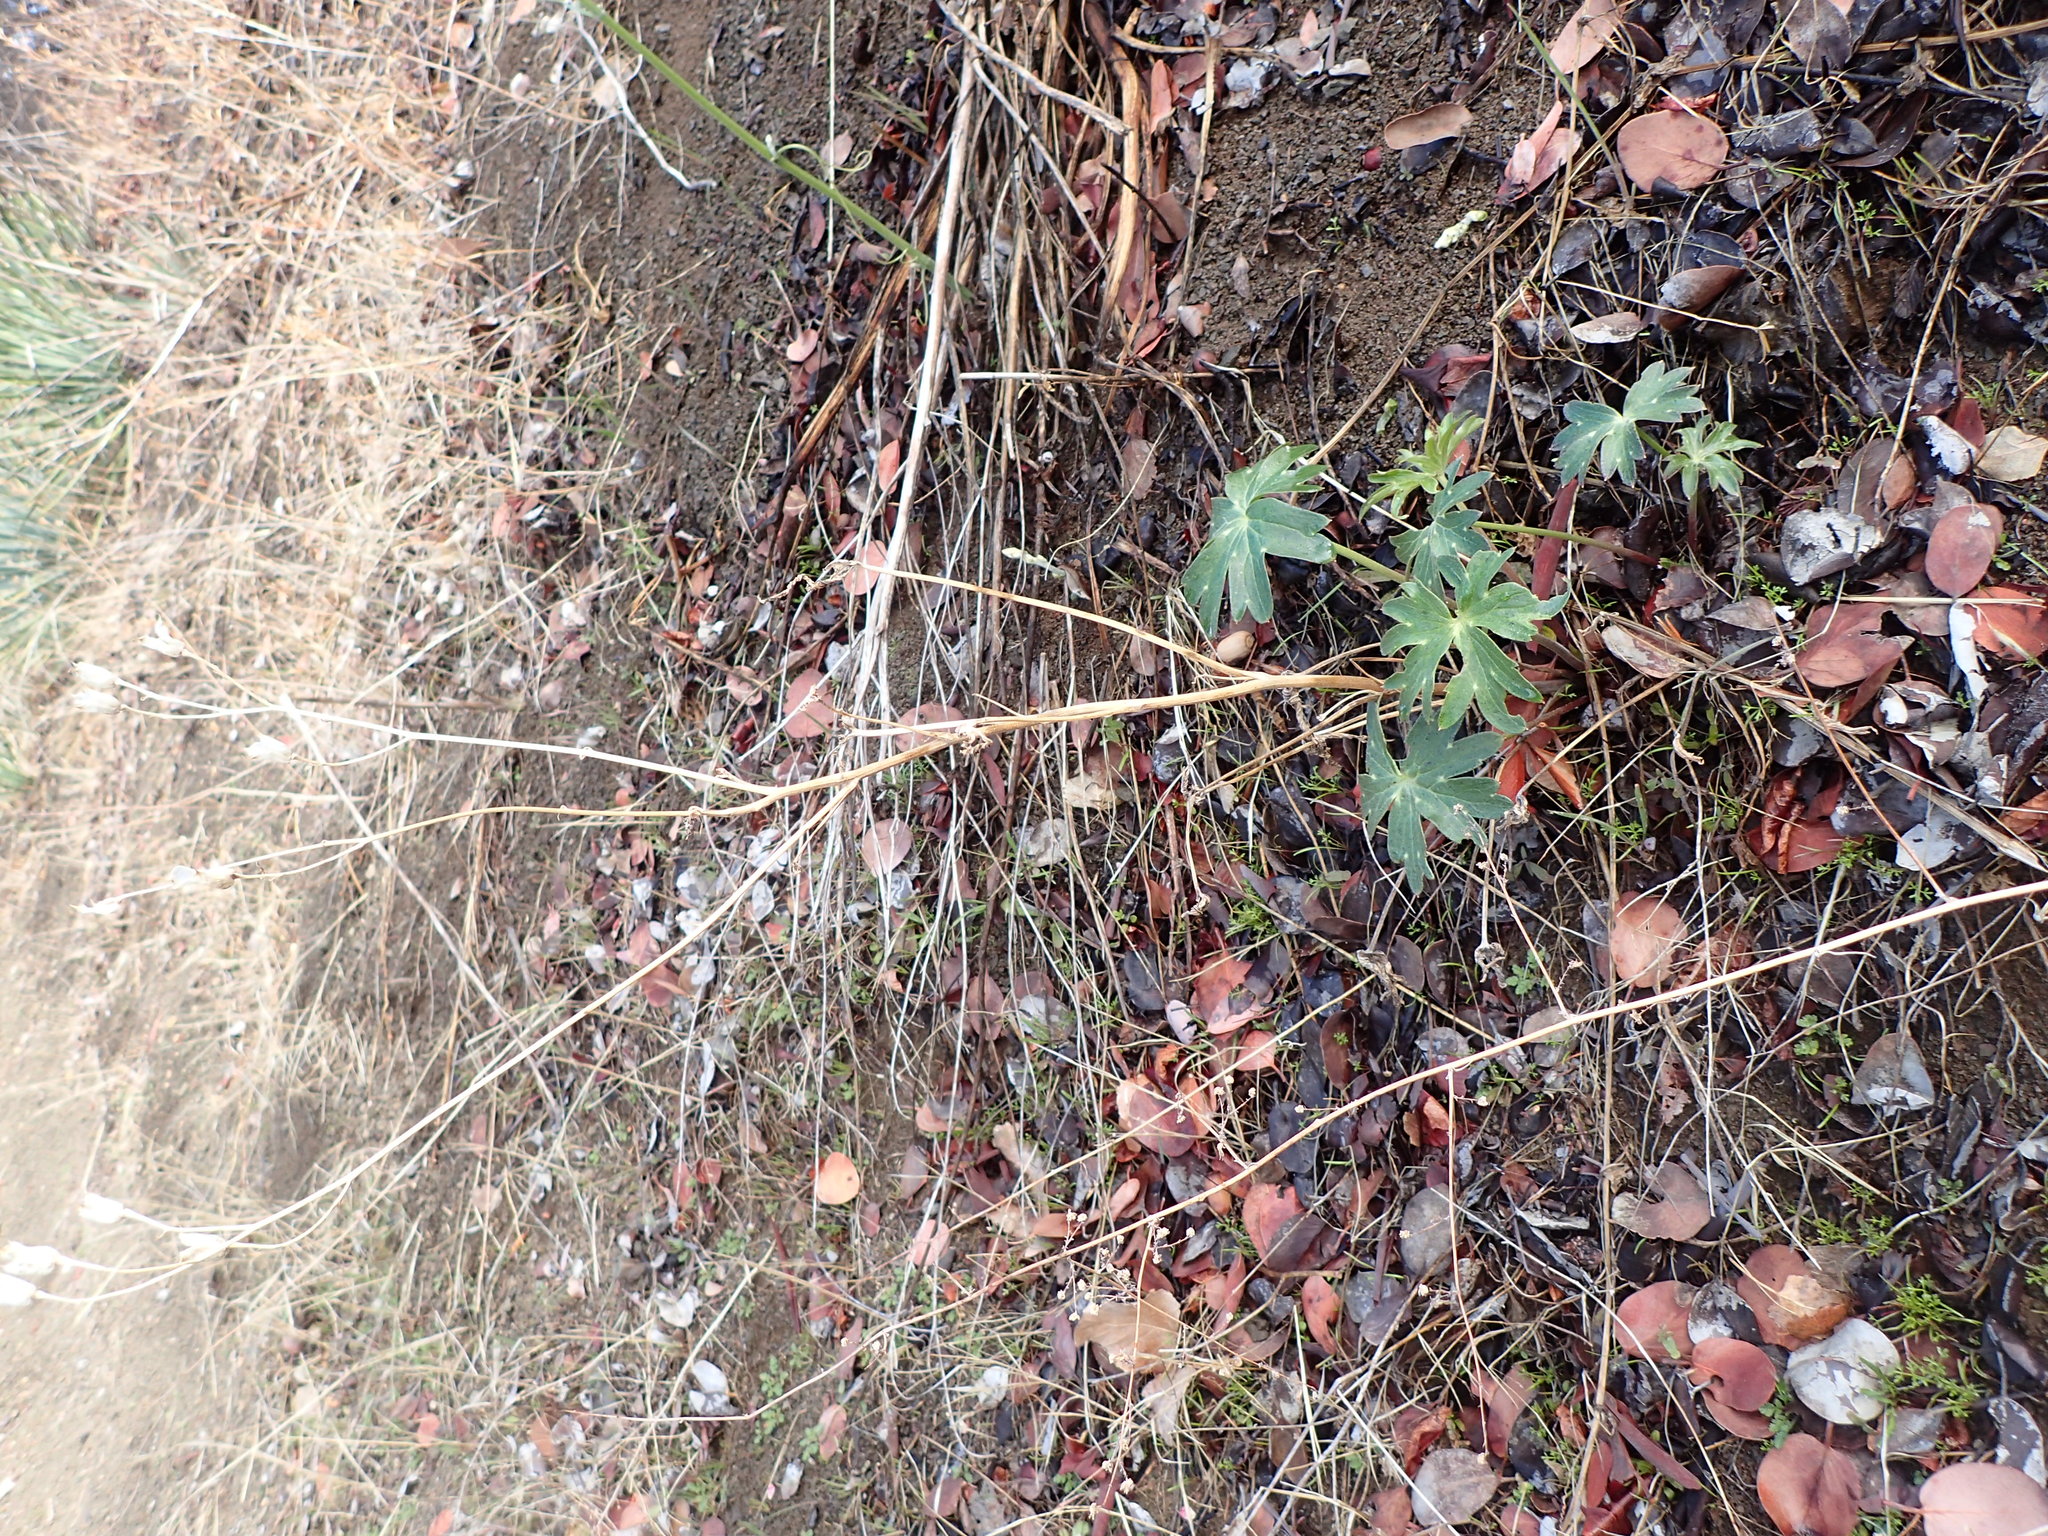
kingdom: Plantae
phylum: Tracheophyta
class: Magnoliopsida
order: Ranunculales
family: Ranunculaceae
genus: Delphinium
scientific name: Delphinium cardinale
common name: Scarlet larkspur
